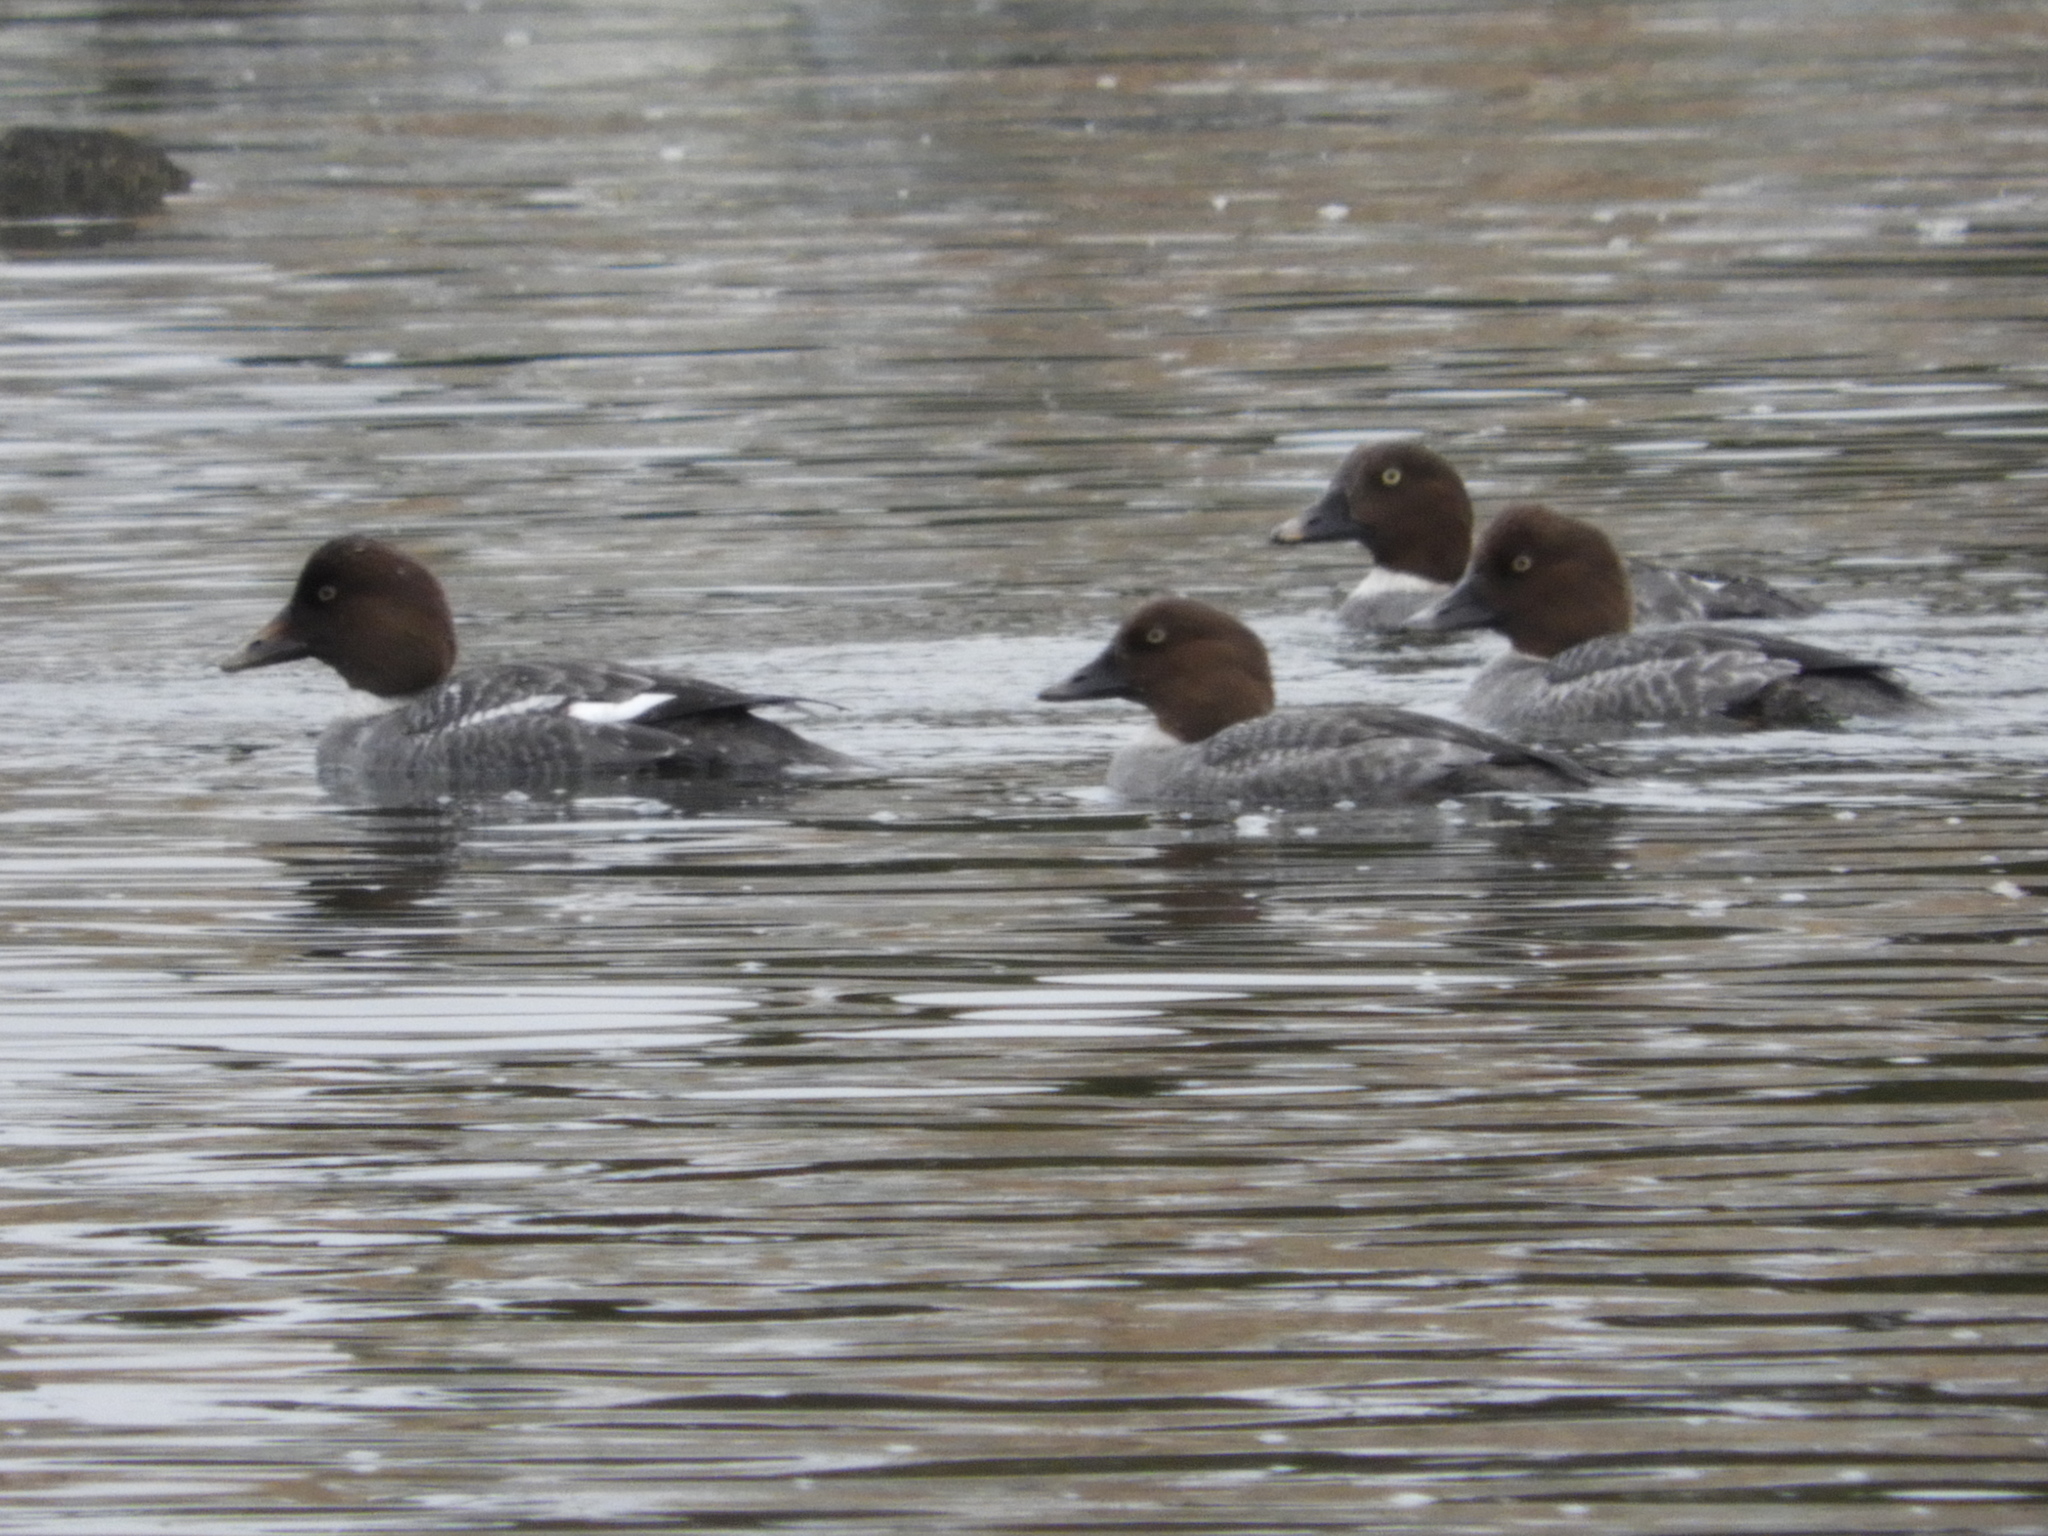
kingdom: Animalia
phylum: Chordata
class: Aves
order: Anseriformes
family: Anatidae
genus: Bucephala
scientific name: Bucephala clangula
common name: Common goldeneye
